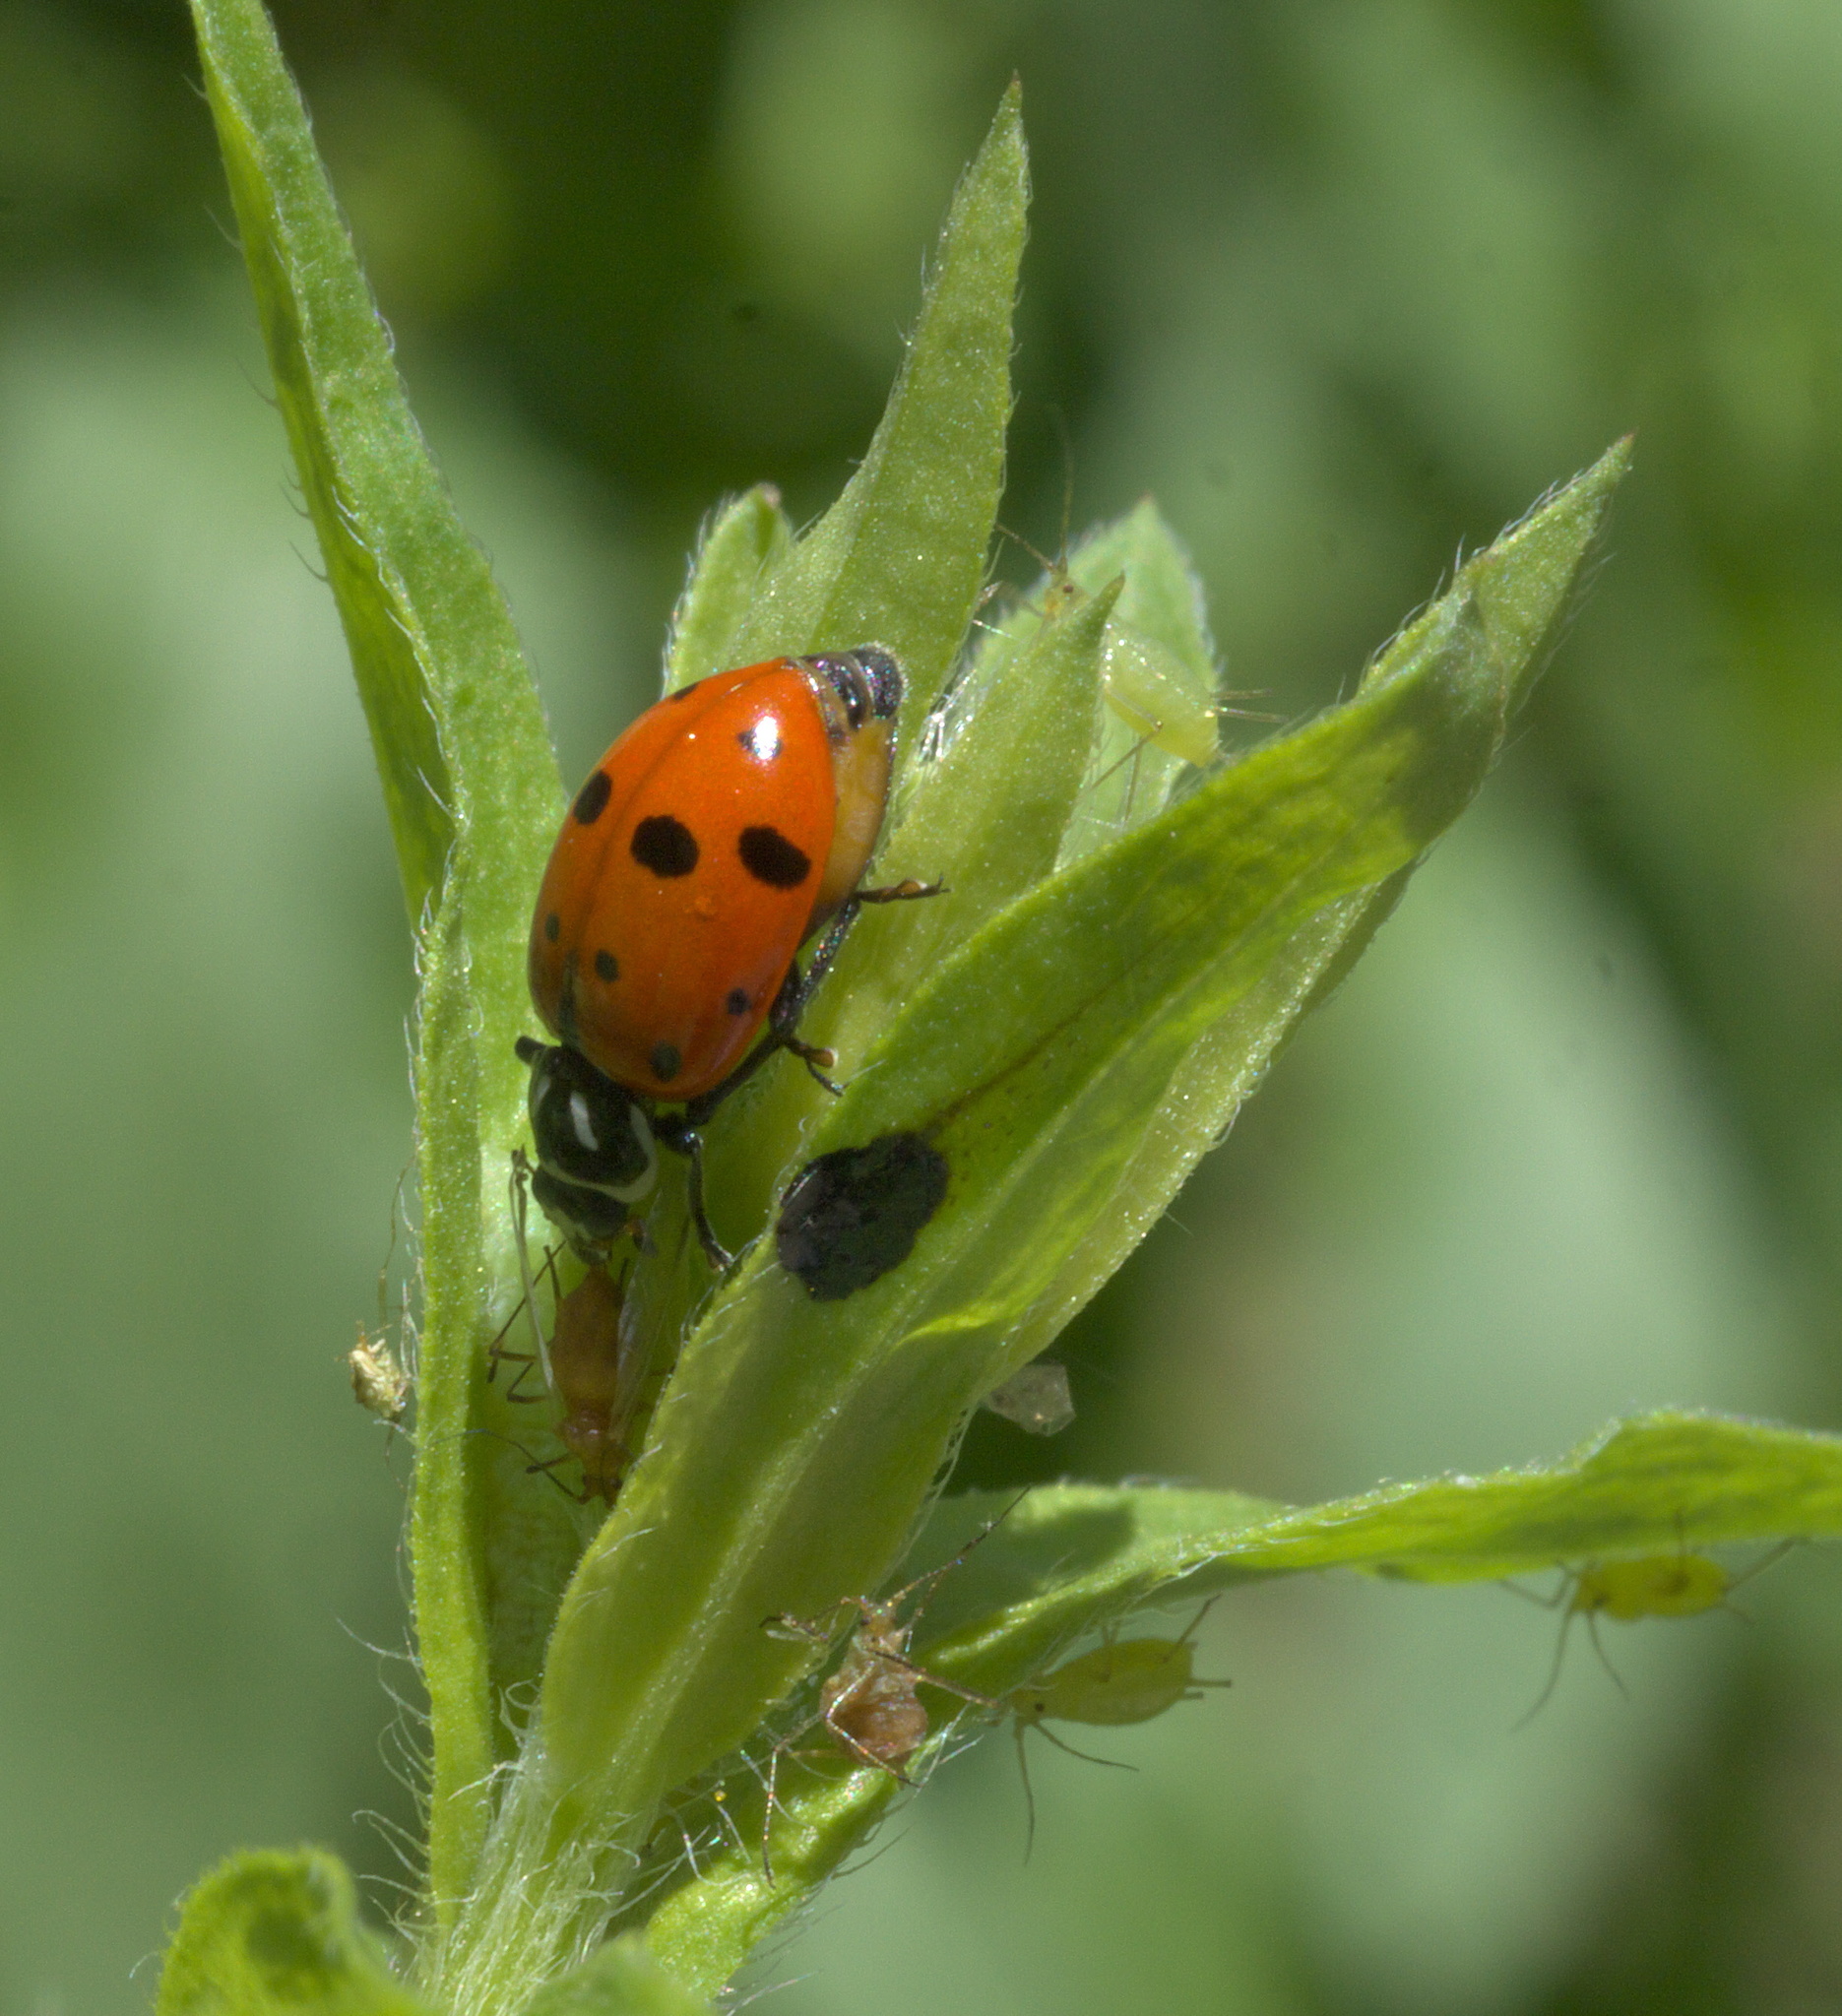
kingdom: Animalia
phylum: Arthropoda
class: Insecta
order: Coleoptera
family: Coccinellidae
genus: Hippodamia
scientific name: Hippodamia convergens
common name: Convergent lady beetle
